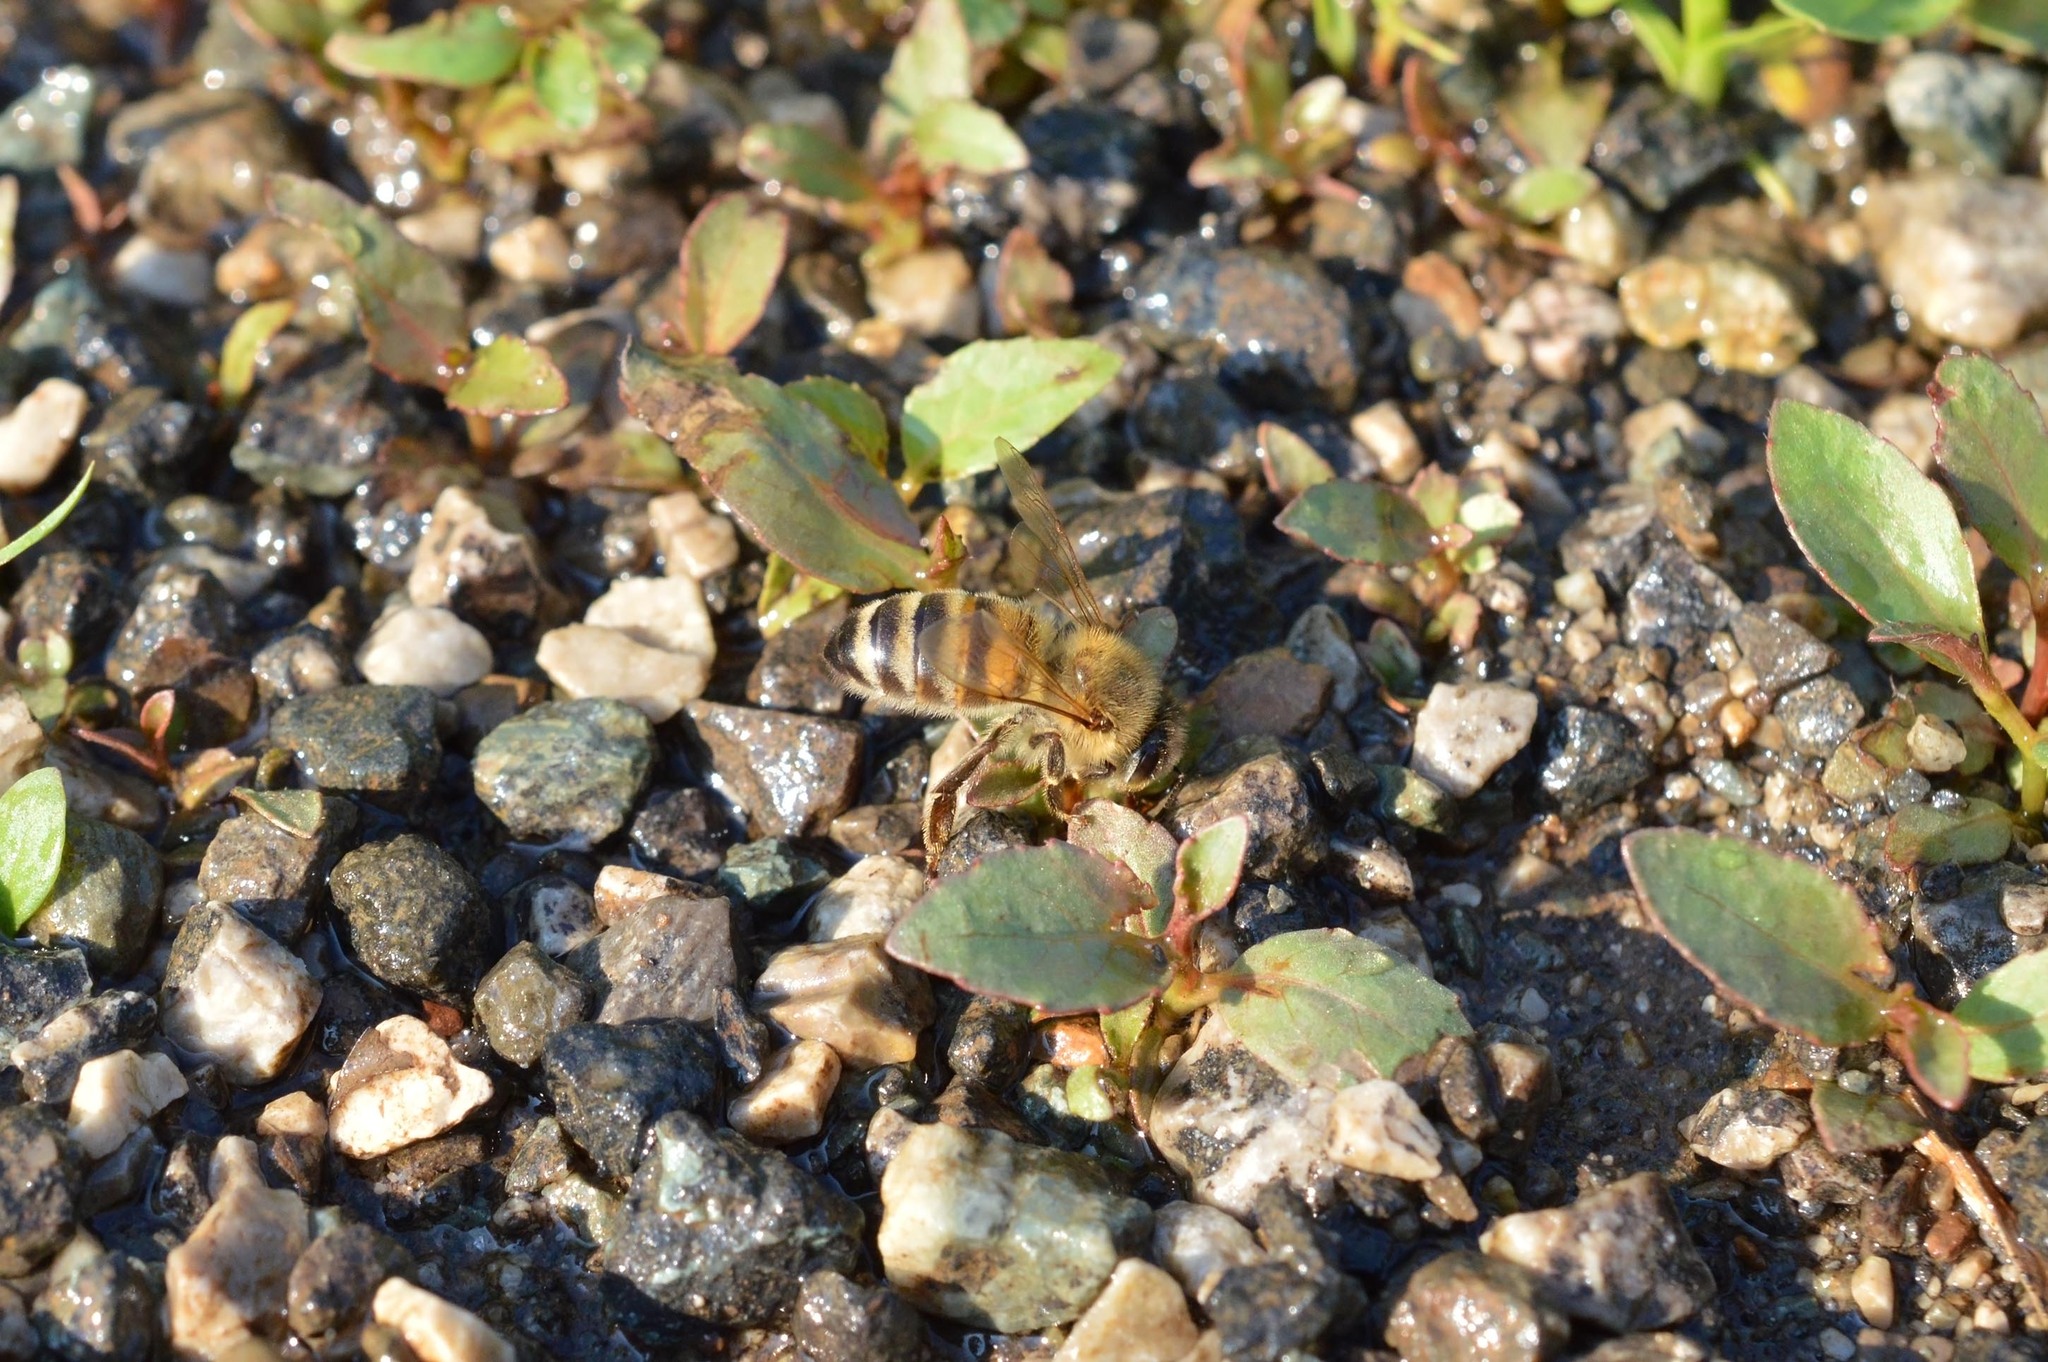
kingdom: Animalia
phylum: Arthropoda
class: Insecta
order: Hymenoptera
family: Apidae
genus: Apis
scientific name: Apis mellifera
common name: Honey bee
